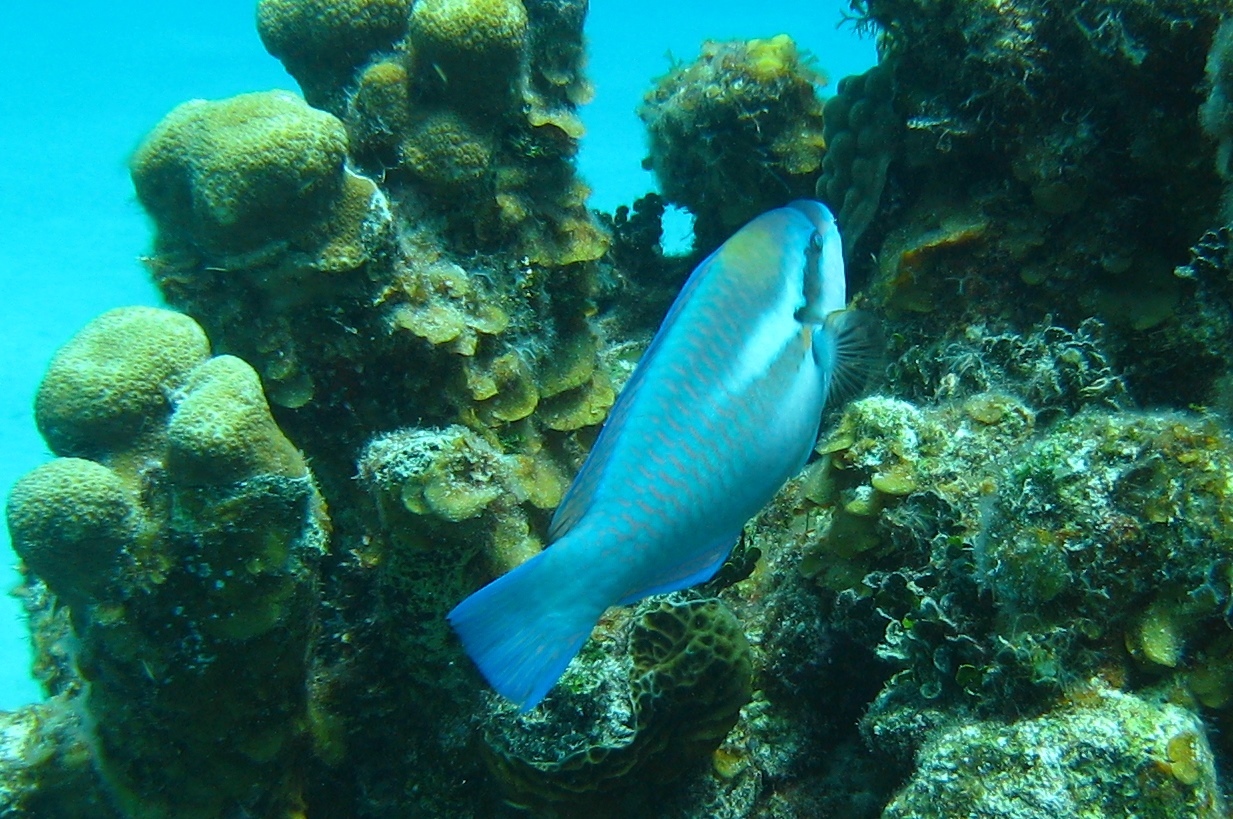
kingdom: Animalia
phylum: Chordata
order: Perciformes
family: Scaridae
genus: Scarus
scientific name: Scarus iseri
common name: Striped parrotfish
